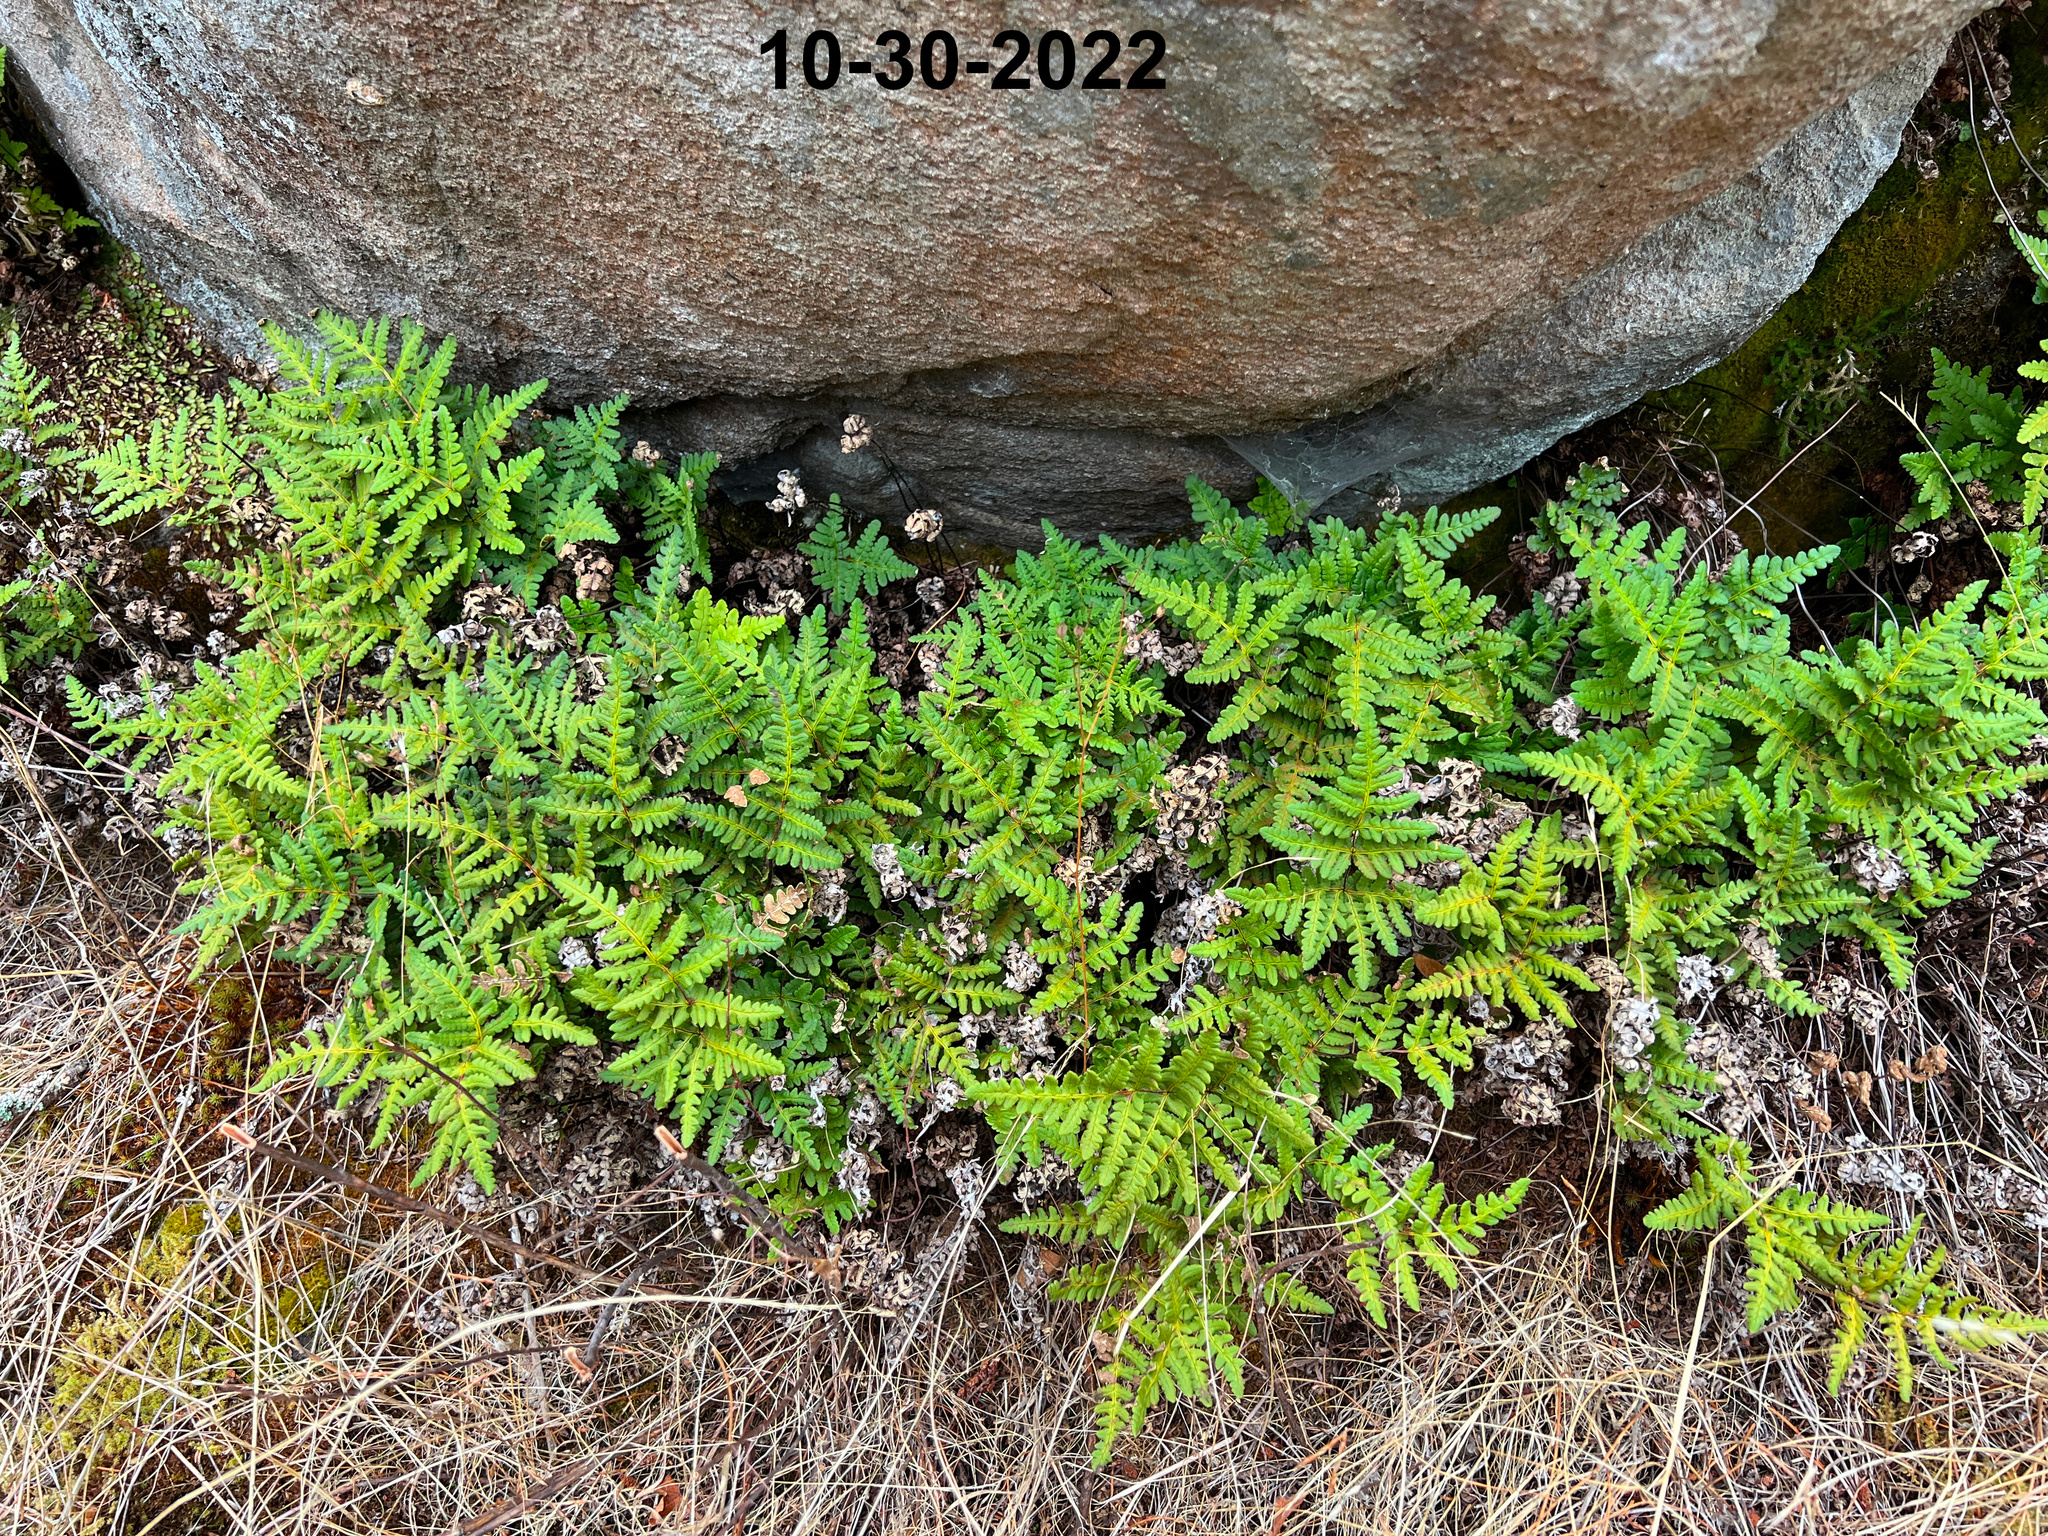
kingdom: Plantae
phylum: Tracheophyta
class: Polypodiopsida
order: Polypodiales
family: Pteridaceae
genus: Pentagramma
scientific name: Pentagramma triangularis
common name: Gold fern
